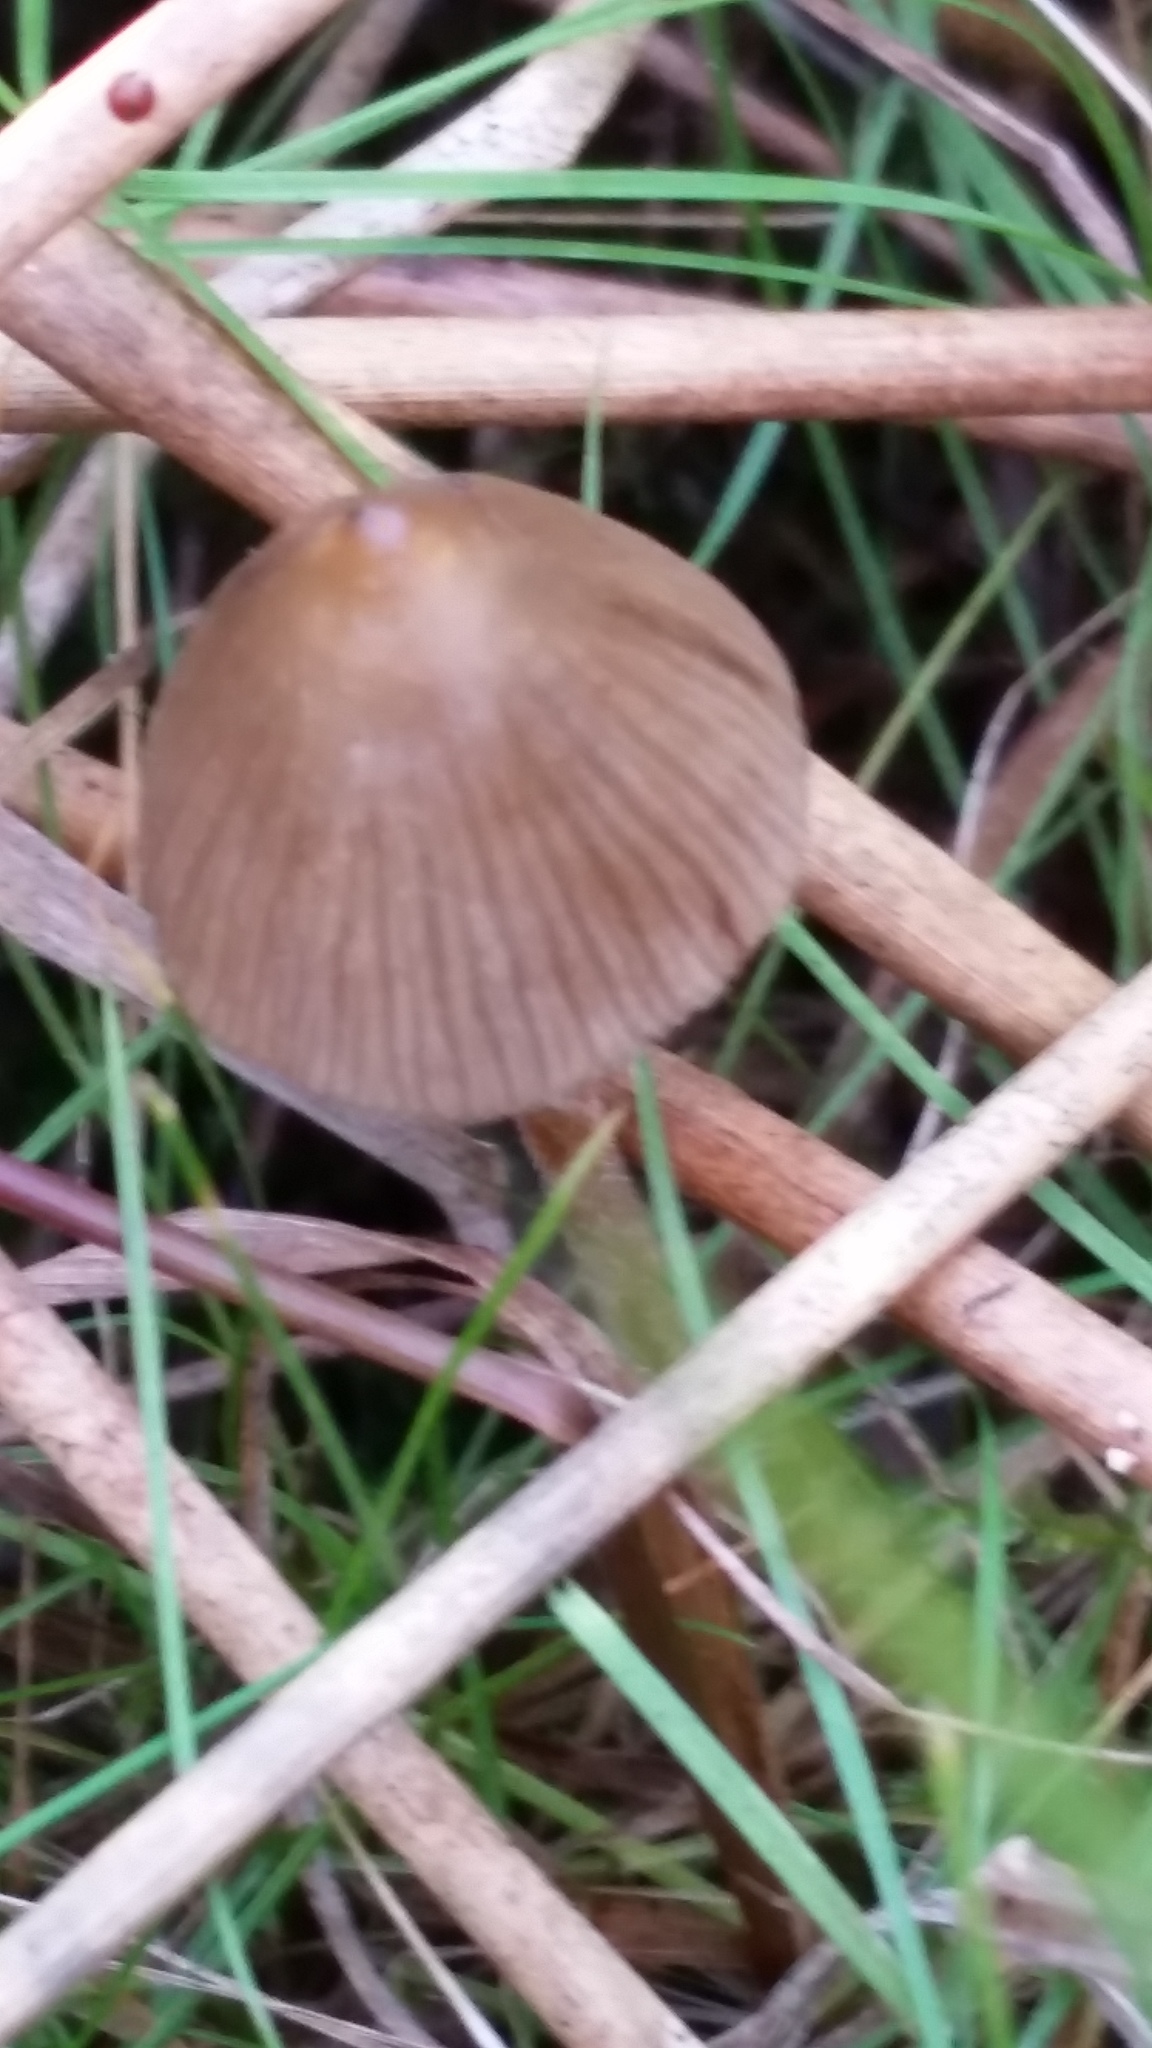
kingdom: Fungi
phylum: Basidiomycota
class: Agaricomycetes
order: Agaricales
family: Hymenogastraceae
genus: Psilocybe
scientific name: Psilocybe semilanceata
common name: Liberty cap
